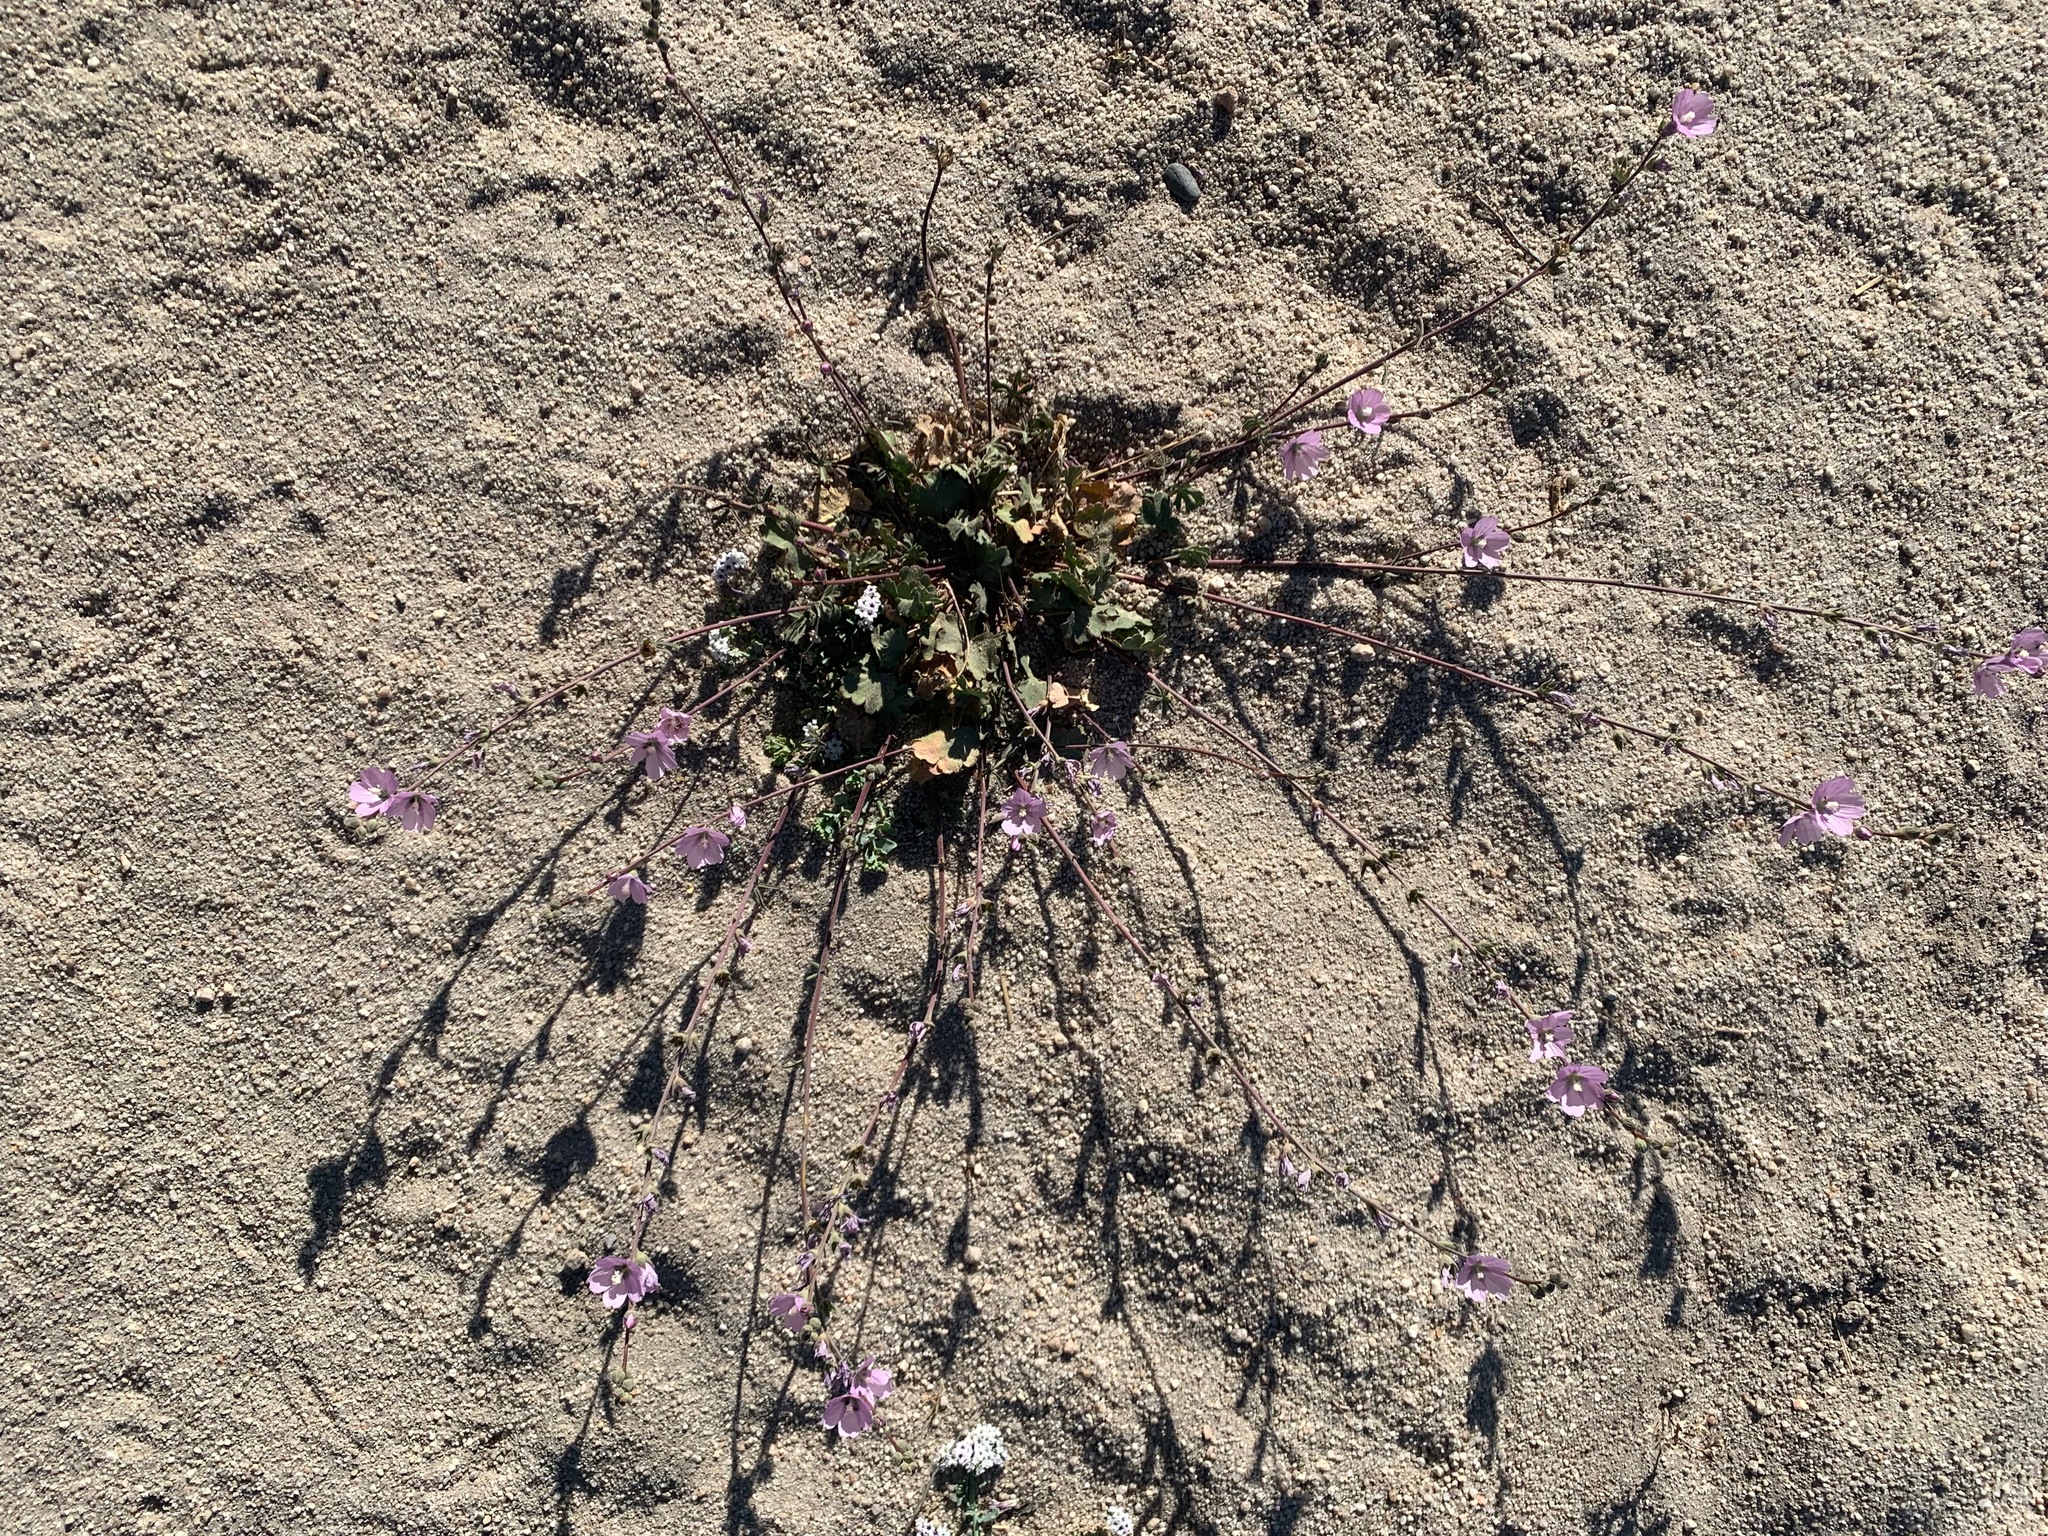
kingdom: Plantae
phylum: Tracheophyta
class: Magnoliopsida
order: Malvales
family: Malvaceae
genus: Sidalcea
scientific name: Sidalcea sparsifolia
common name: Southern checkerbloom
